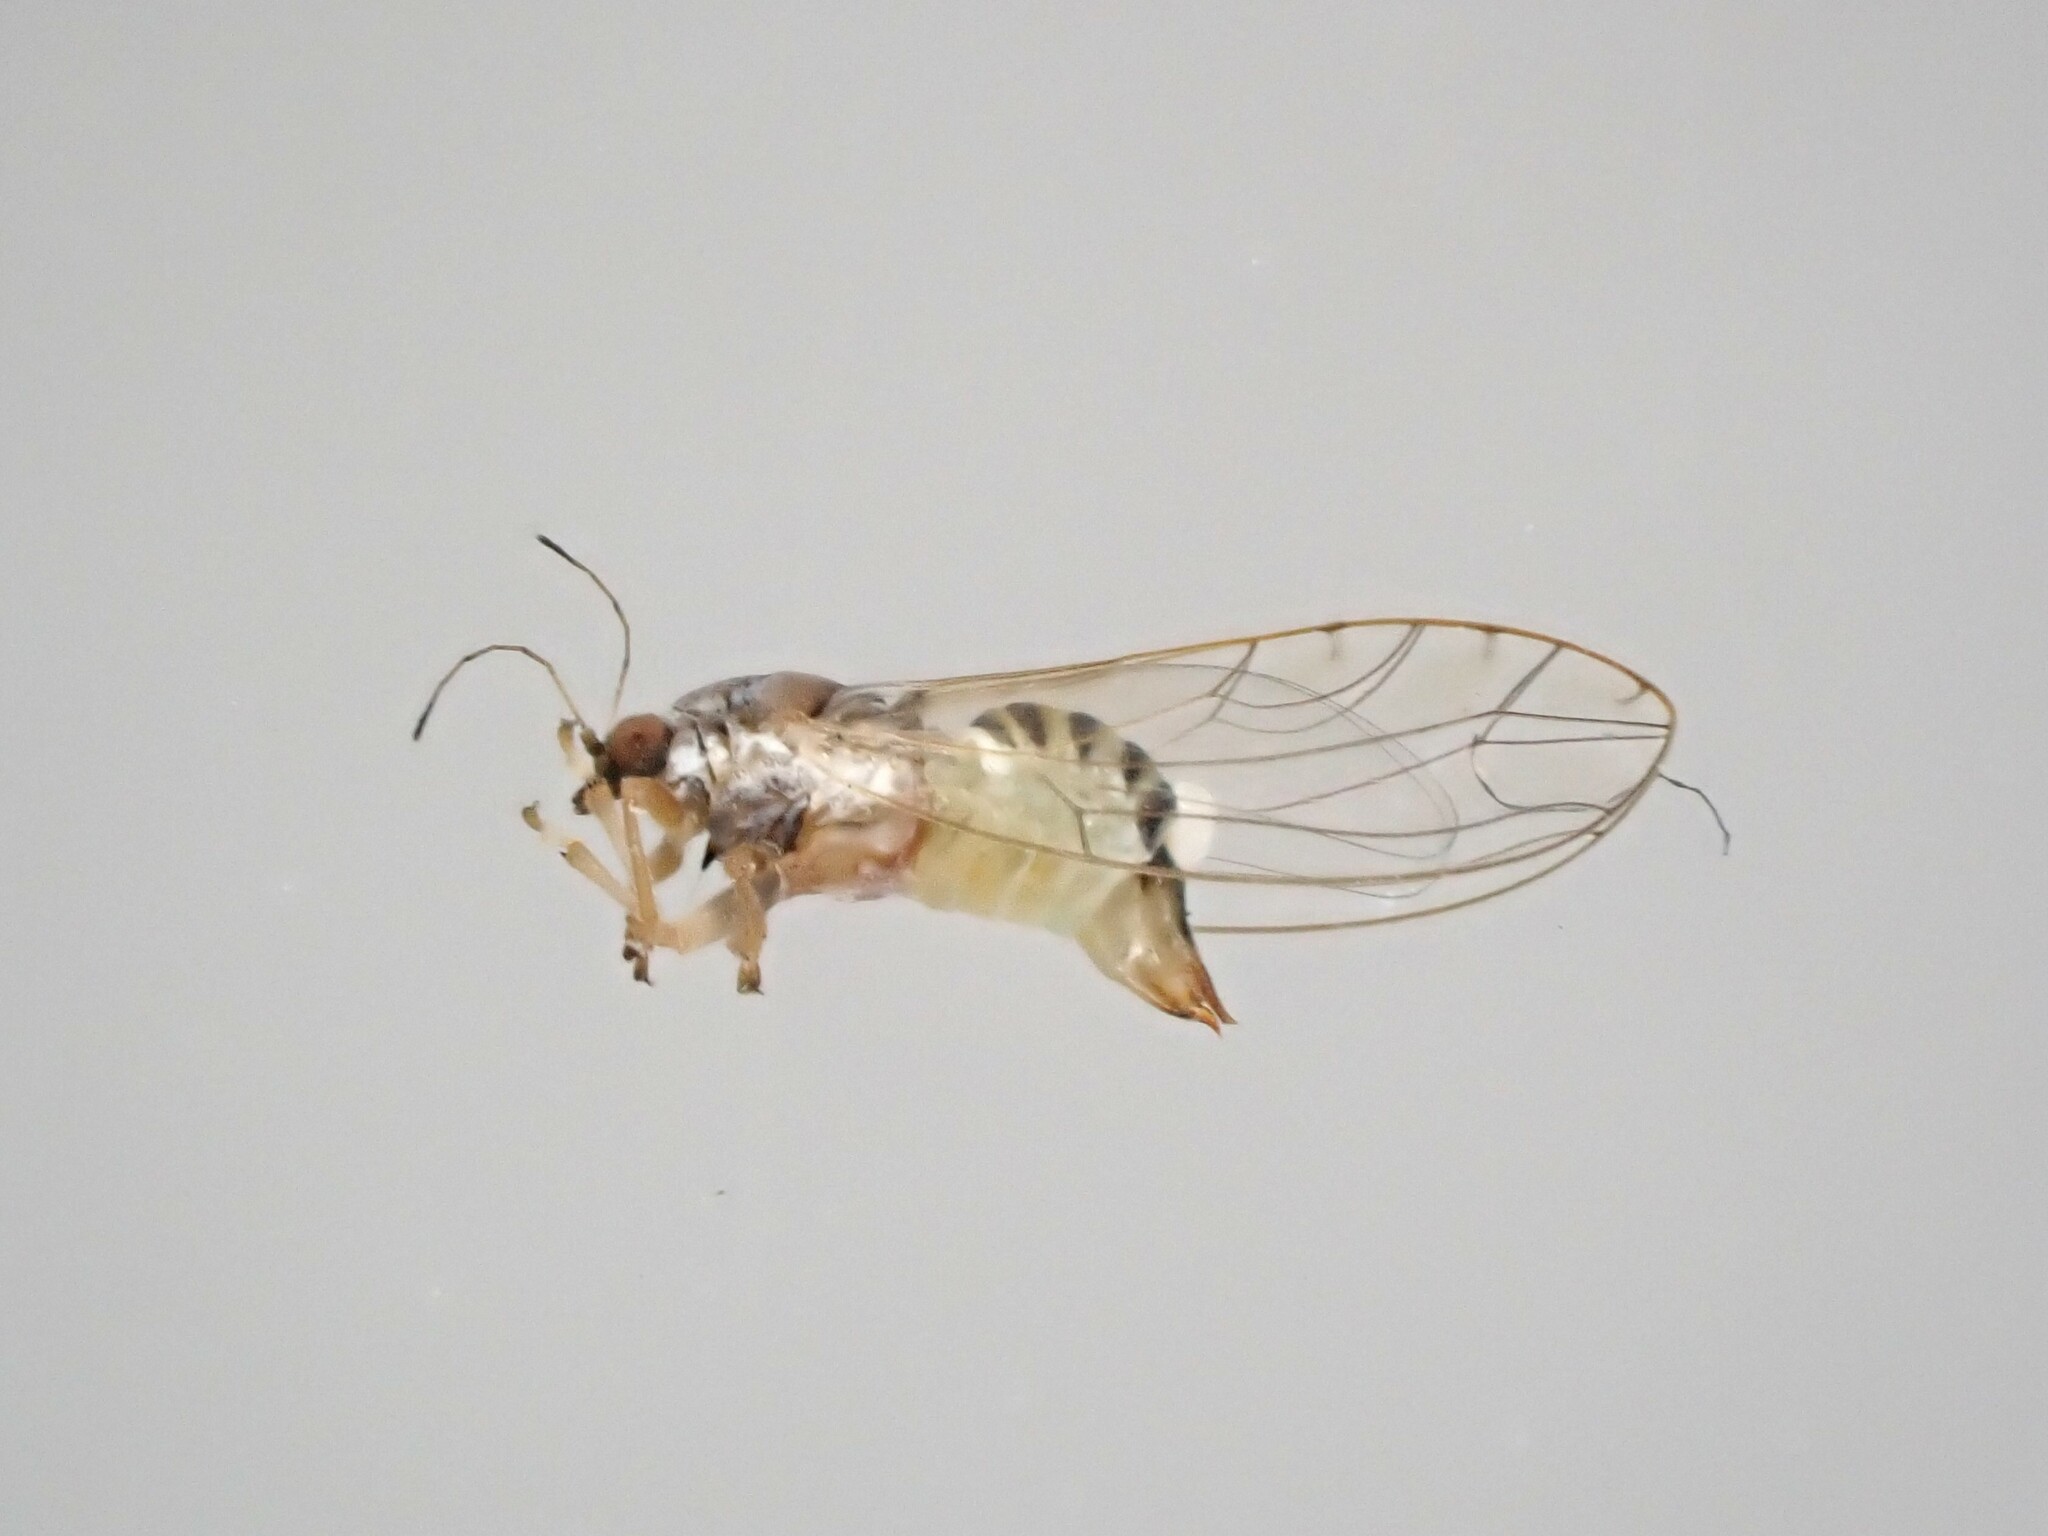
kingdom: Animalia
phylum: Arthropoda
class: Insecta
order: Hemiptera
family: Triozidae
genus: Powellia
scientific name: Powellia vitreoradiata
